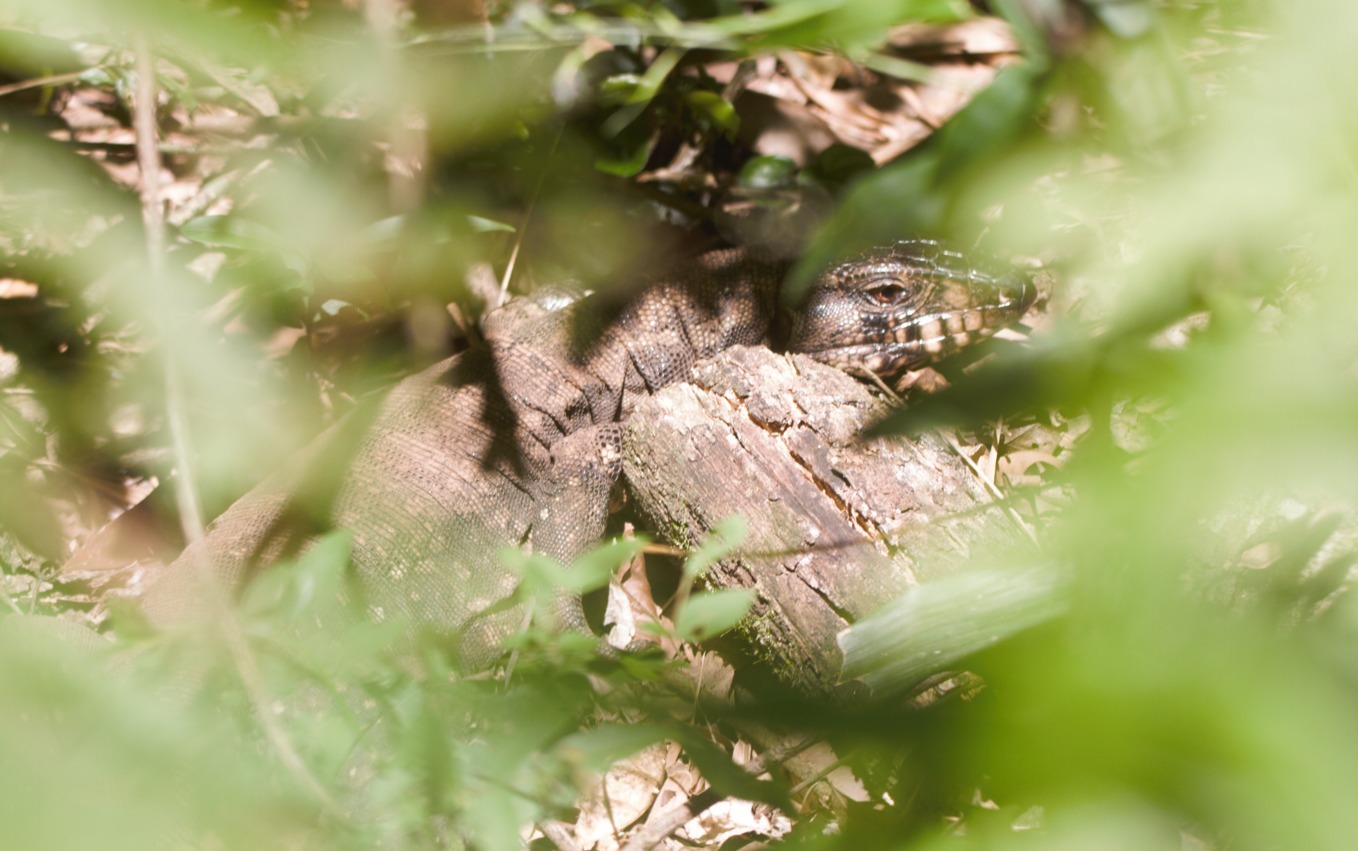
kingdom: Animalia
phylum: Chordata
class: Squamata
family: Teiidae
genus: Salvator
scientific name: Salvator merianae
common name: Argentine black and white tegu
